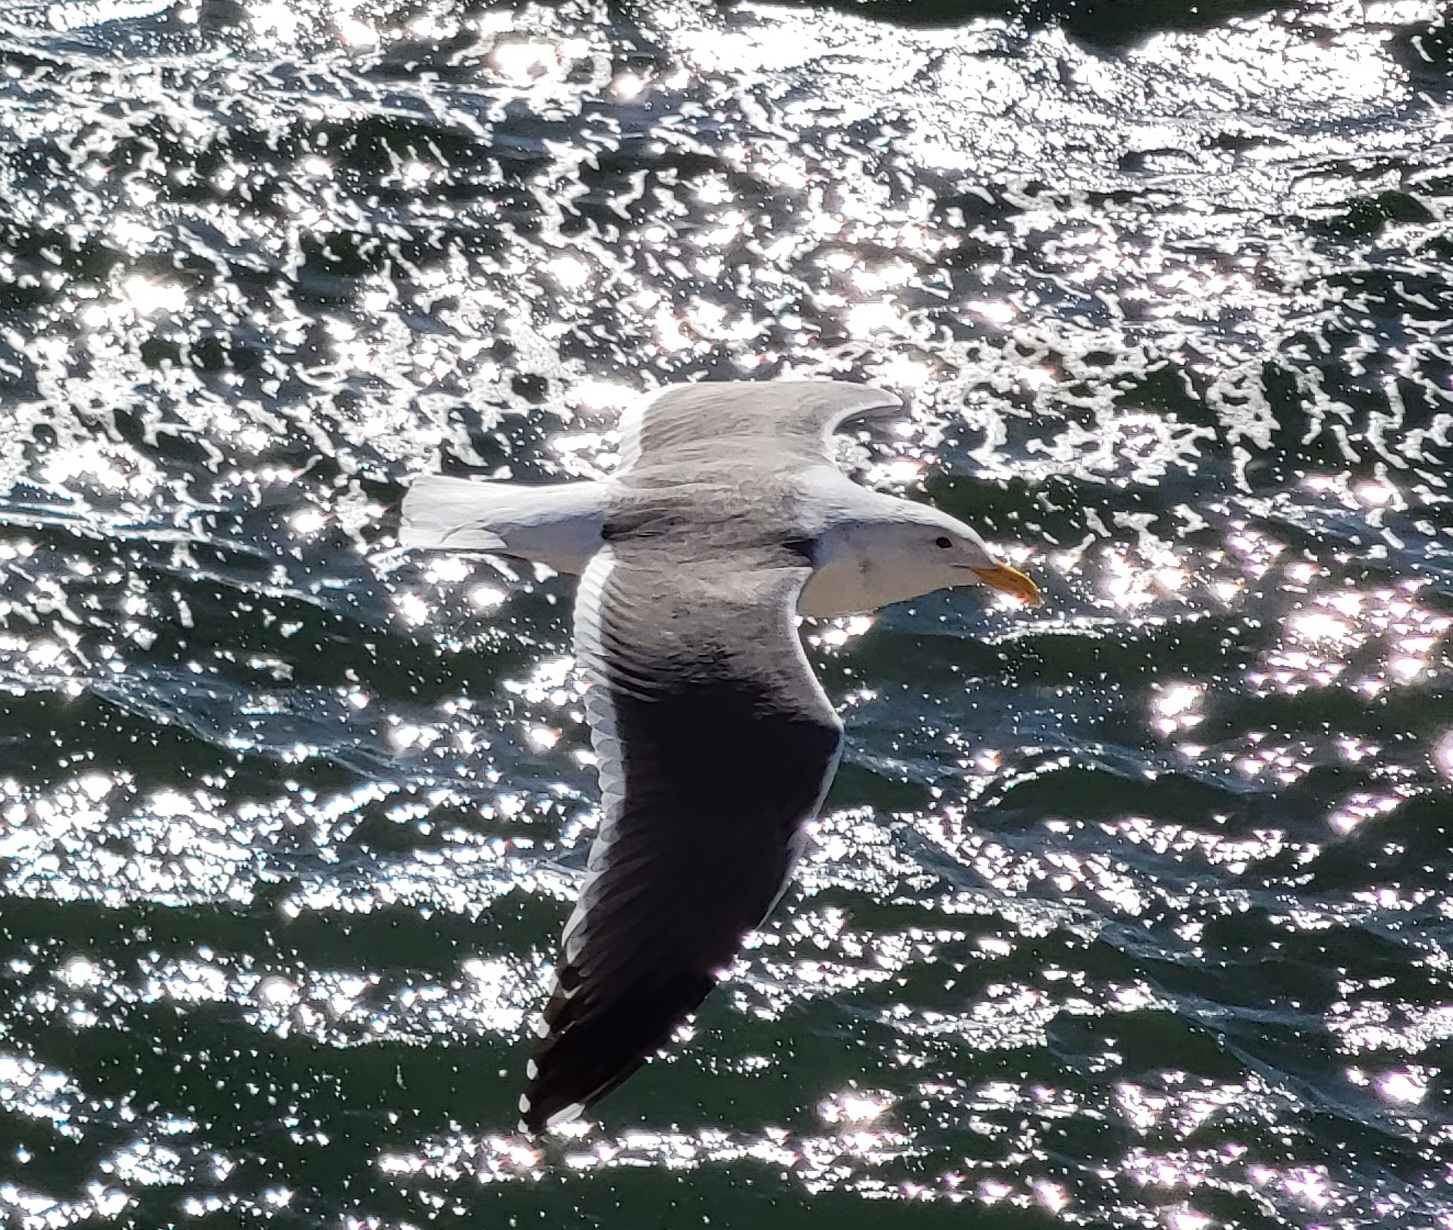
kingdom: Animalia
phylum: Chordata
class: Aves
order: Charadriiformes
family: Laridae
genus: Larus
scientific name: Larus occidentalis
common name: Western gull
